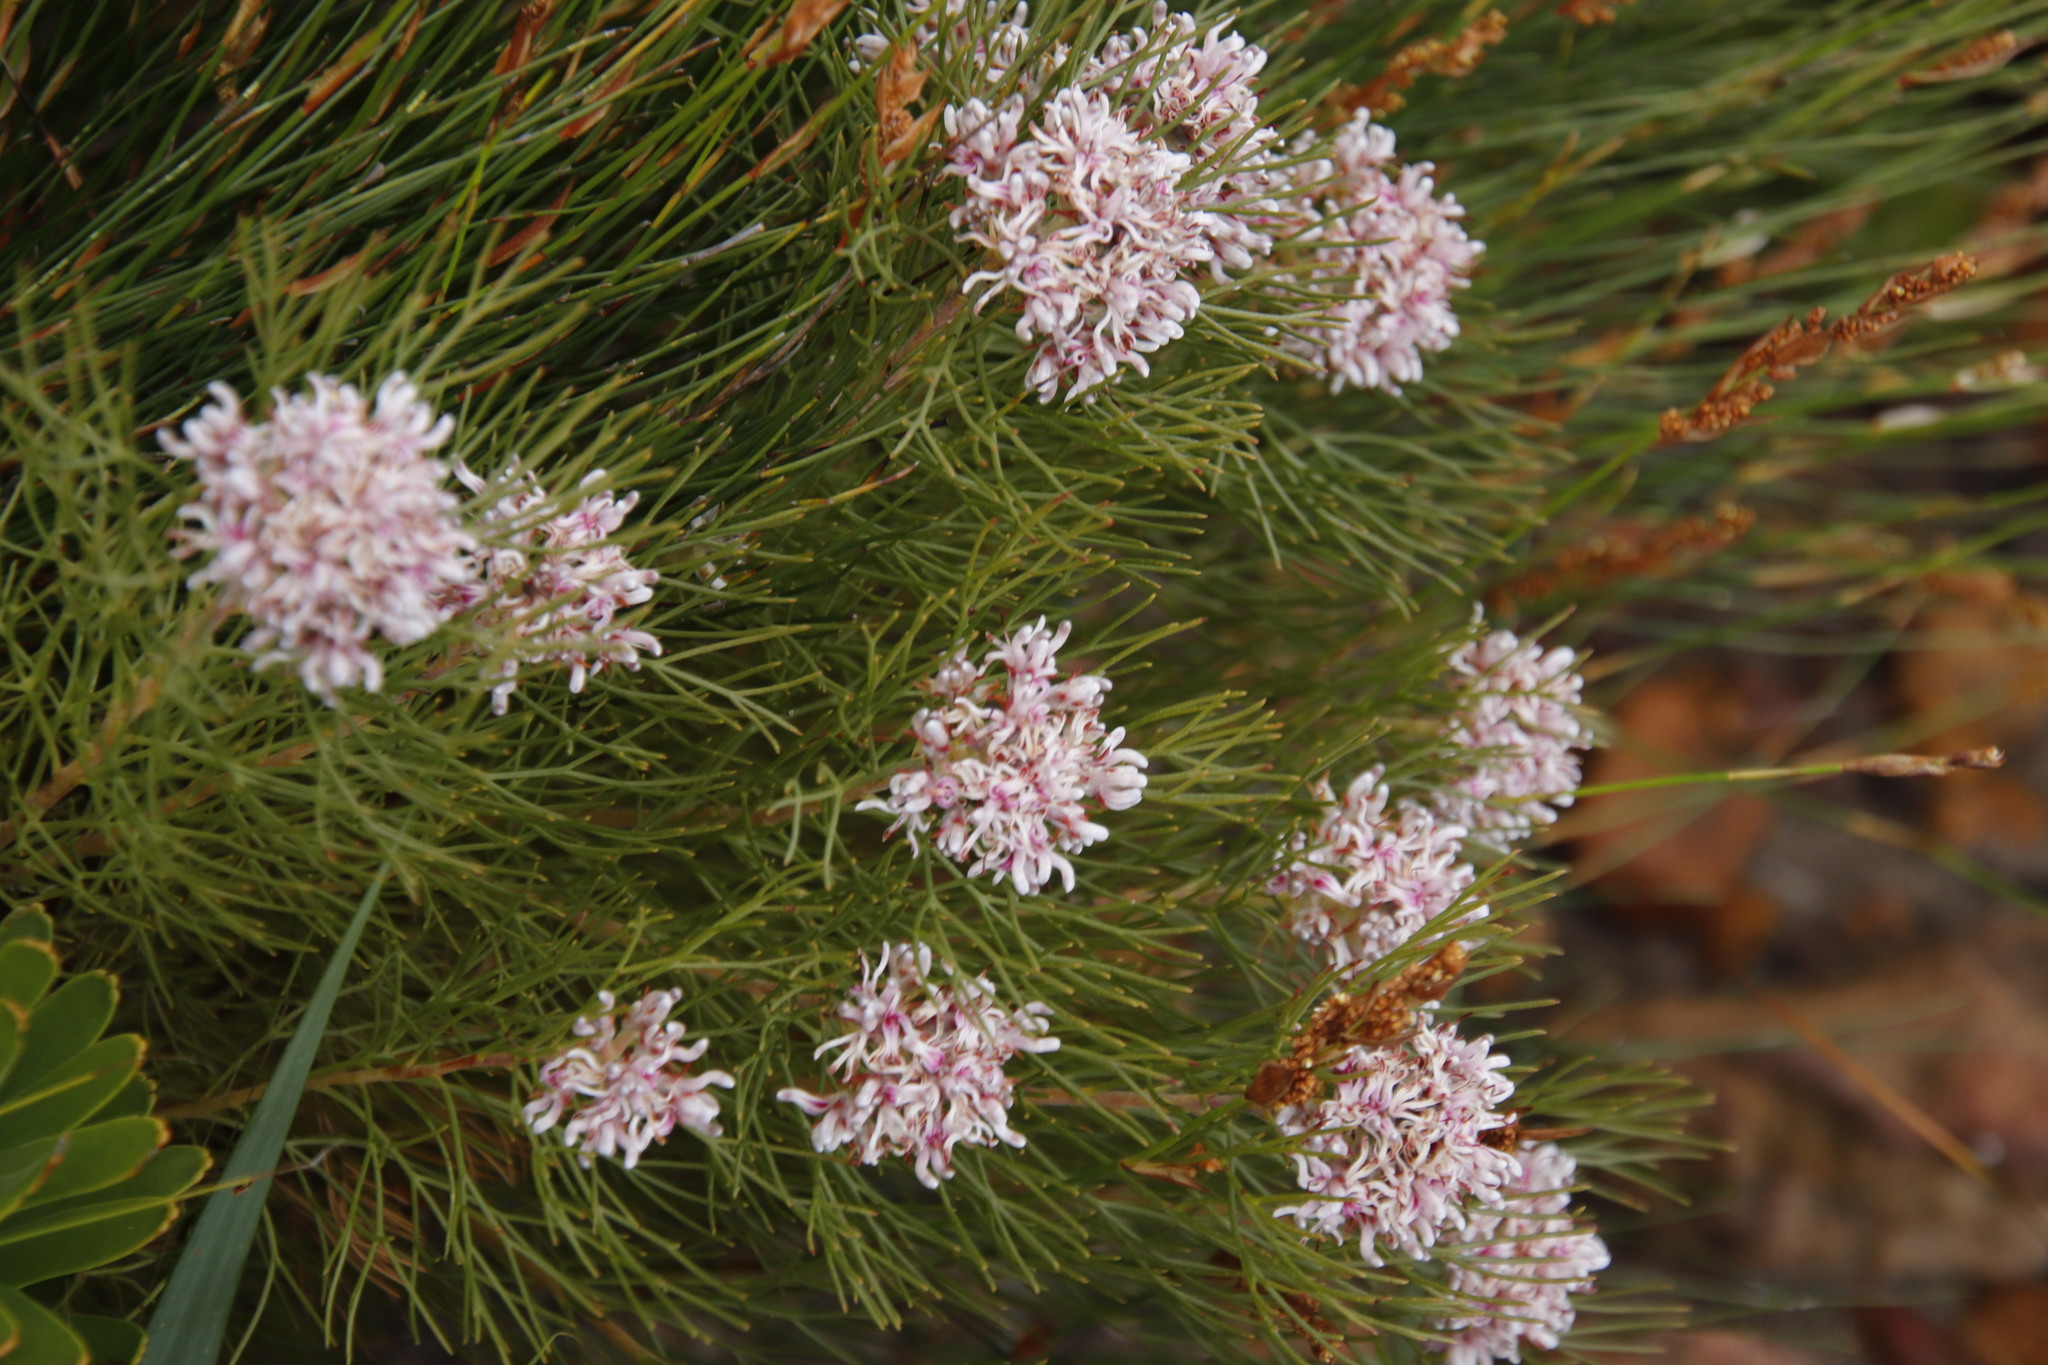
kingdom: Plantae
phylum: Tracheophyta
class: Magnoliopsida
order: Proteales
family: Proteaceae
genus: Serruria
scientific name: Serruria ascendens
